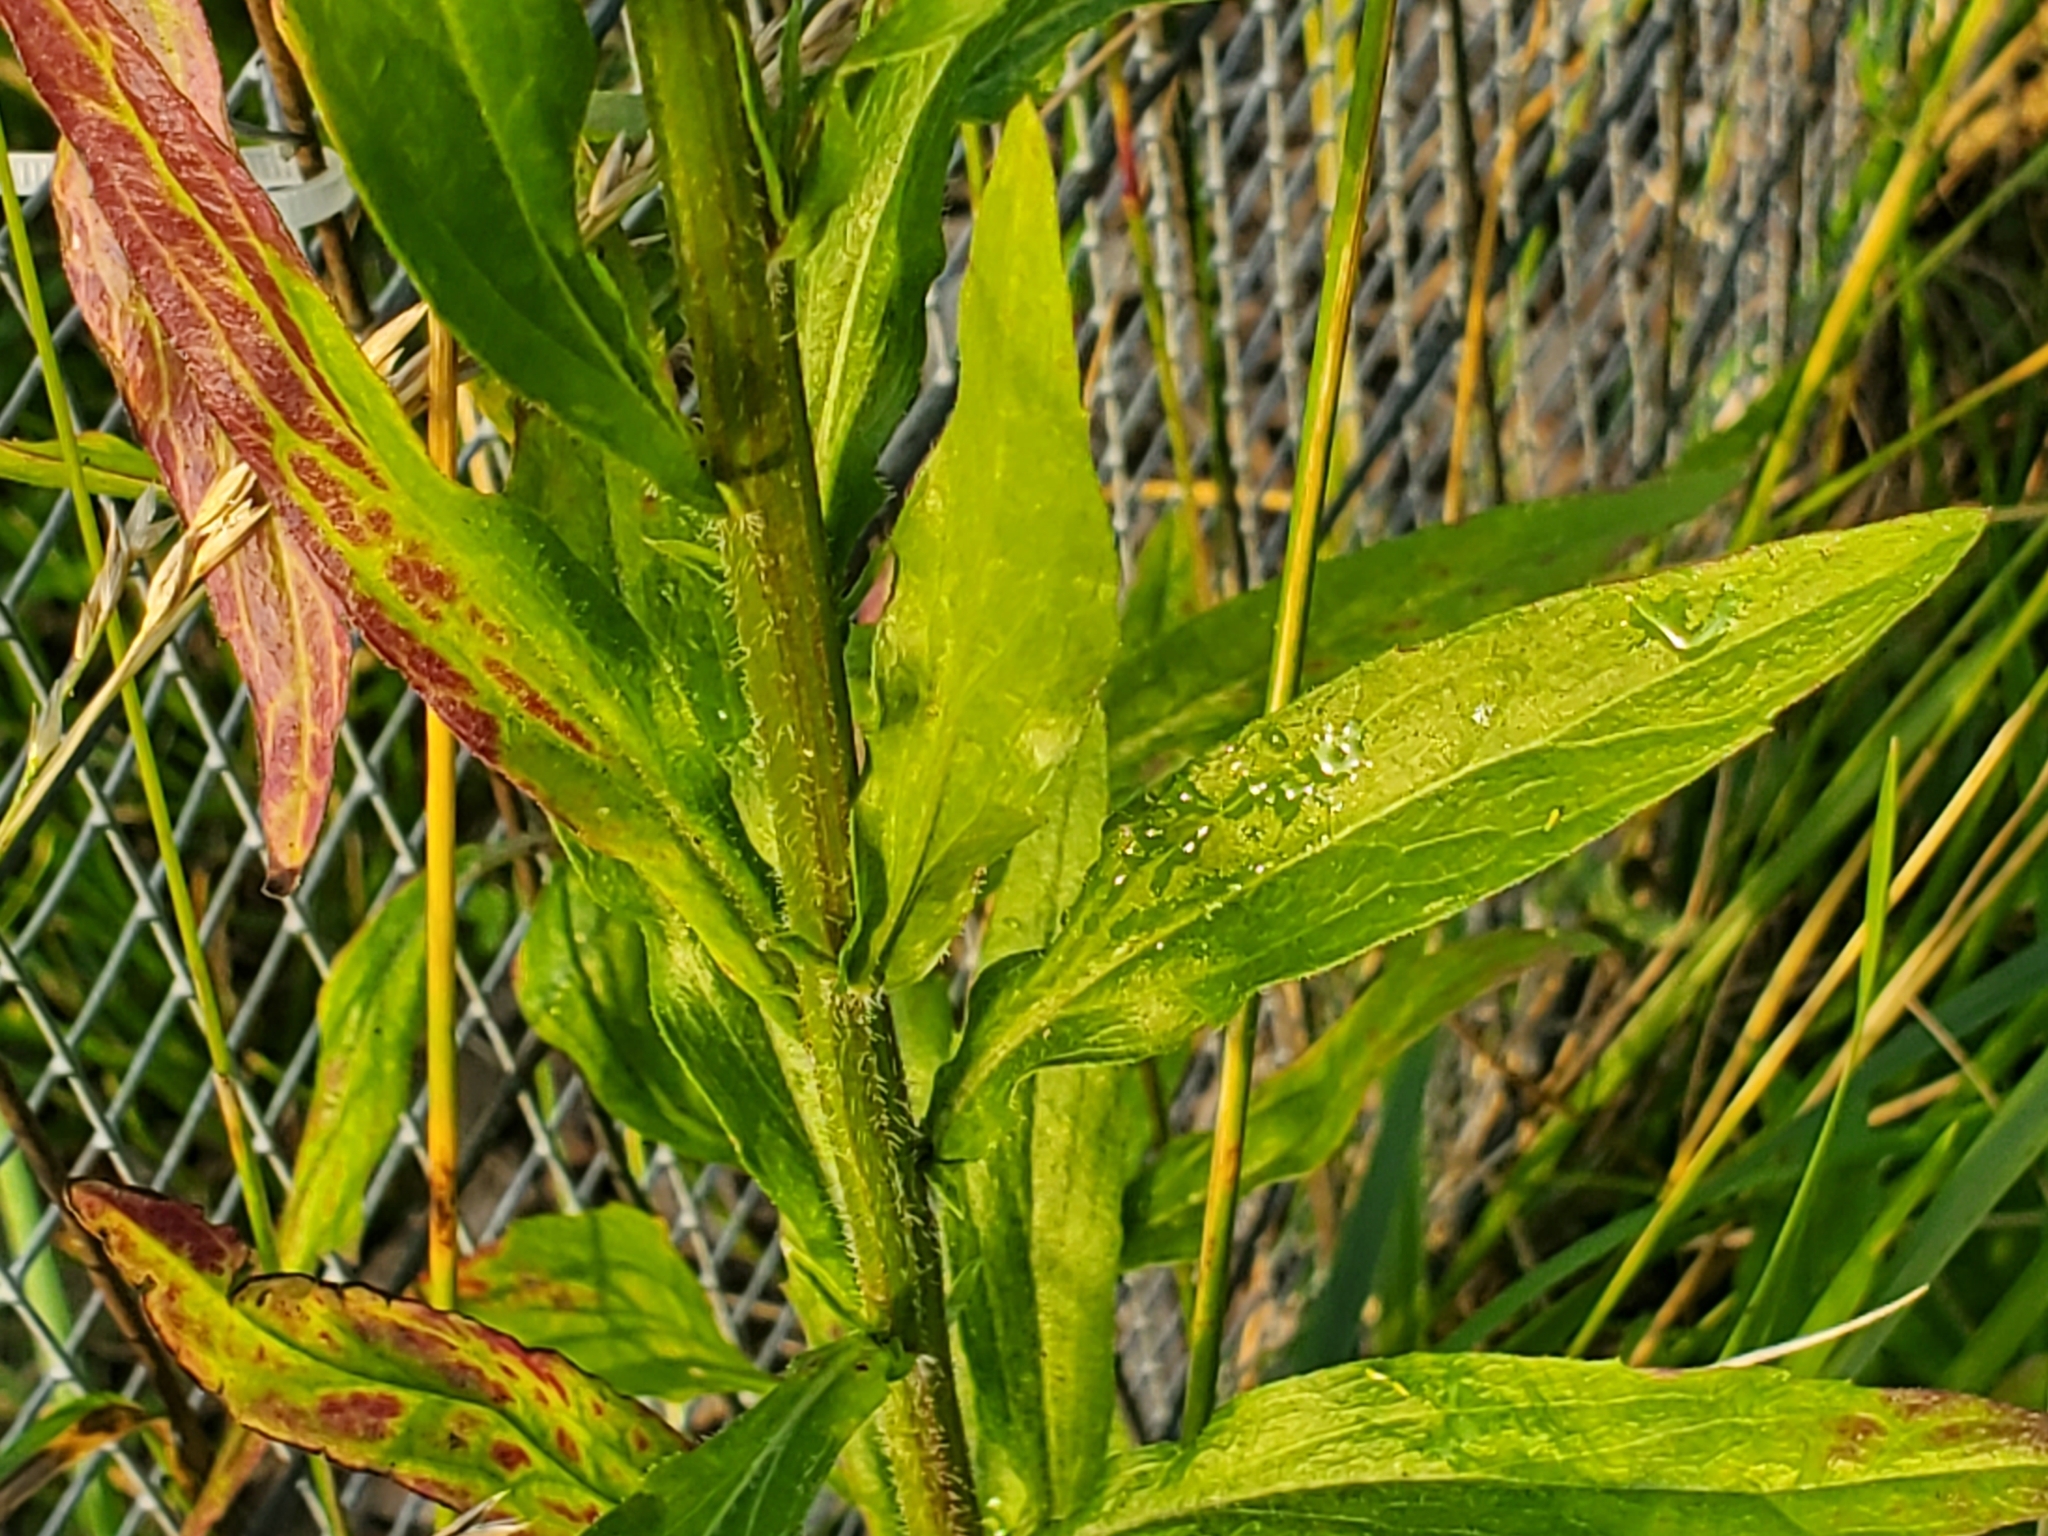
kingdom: Plantae
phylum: Tracheophyta
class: Magnoliopsida
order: Asterales
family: Asteraceae
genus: Erigeron
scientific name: Erigeron annuus
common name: Tall fleabane
